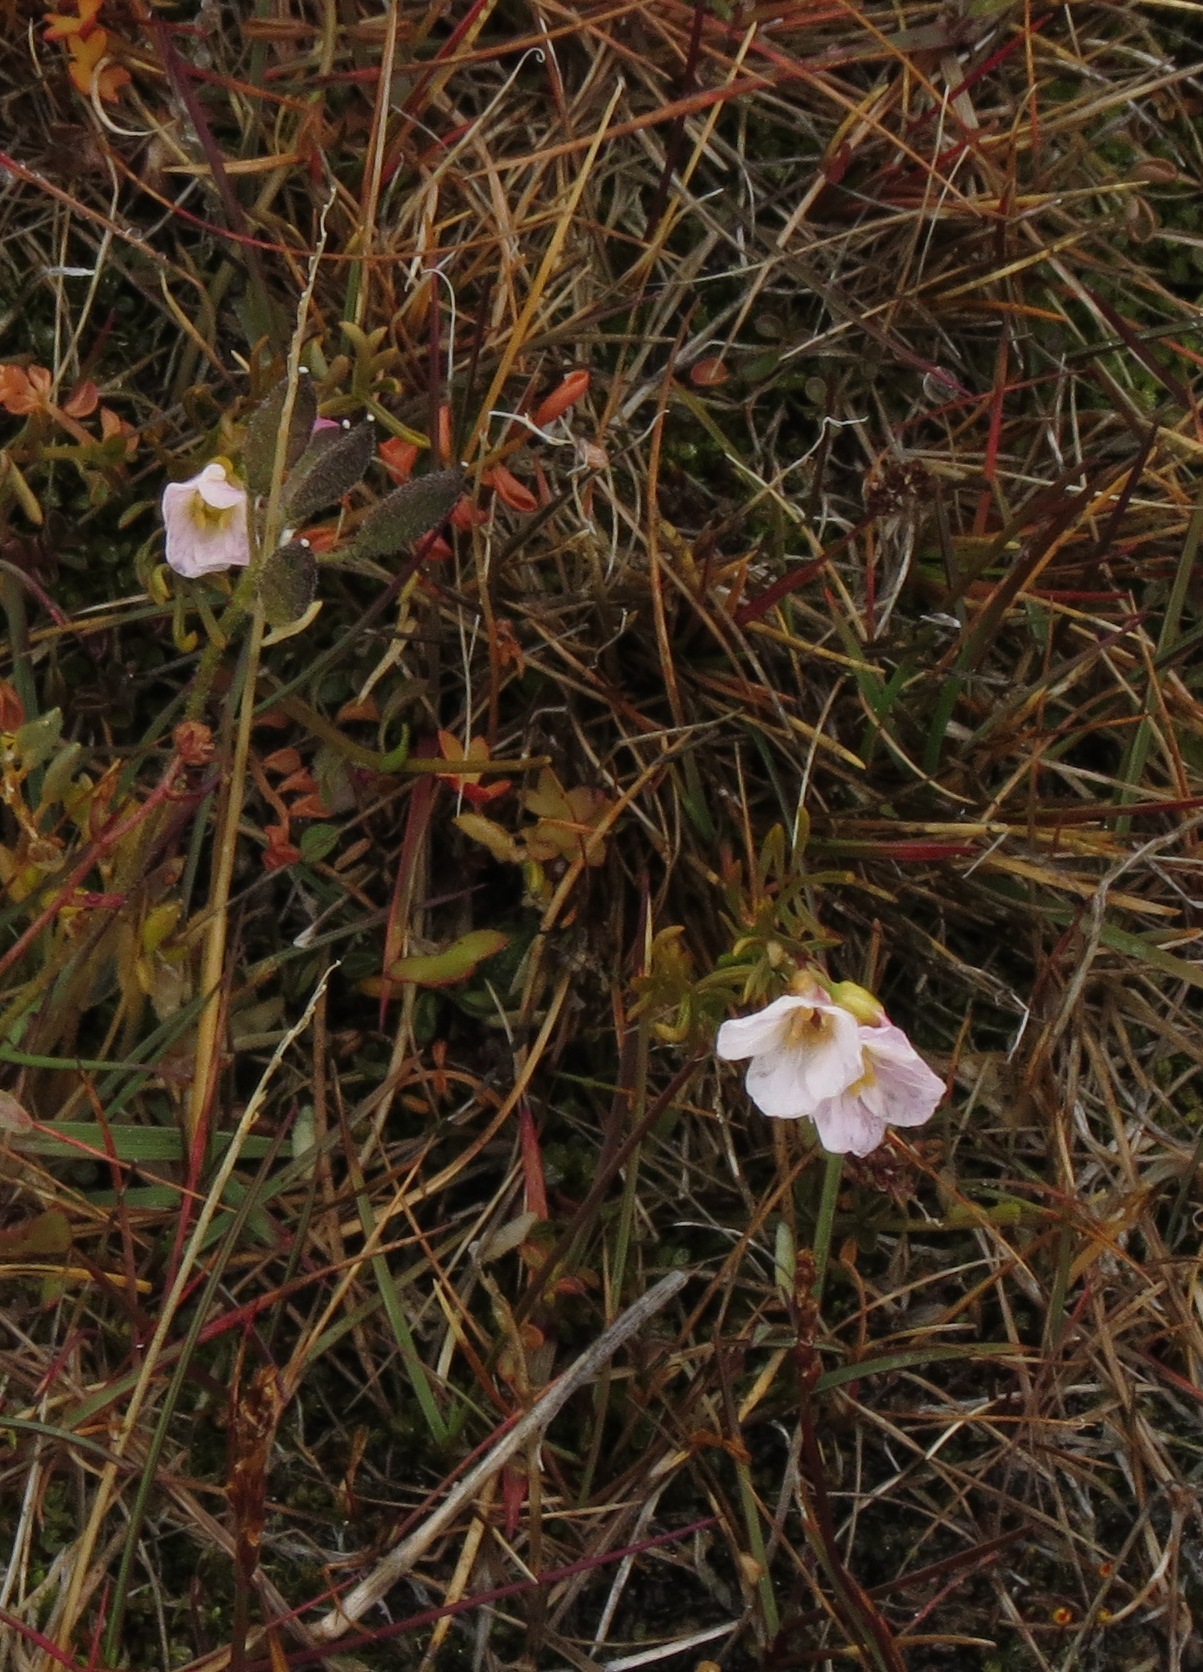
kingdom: Plantae
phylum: Tracheophyta
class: Magnoliopsida
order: Brassicales
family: Brassicaceae
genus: Cardamine
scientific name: Cardamine digitata
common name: Richardson's bittercress
